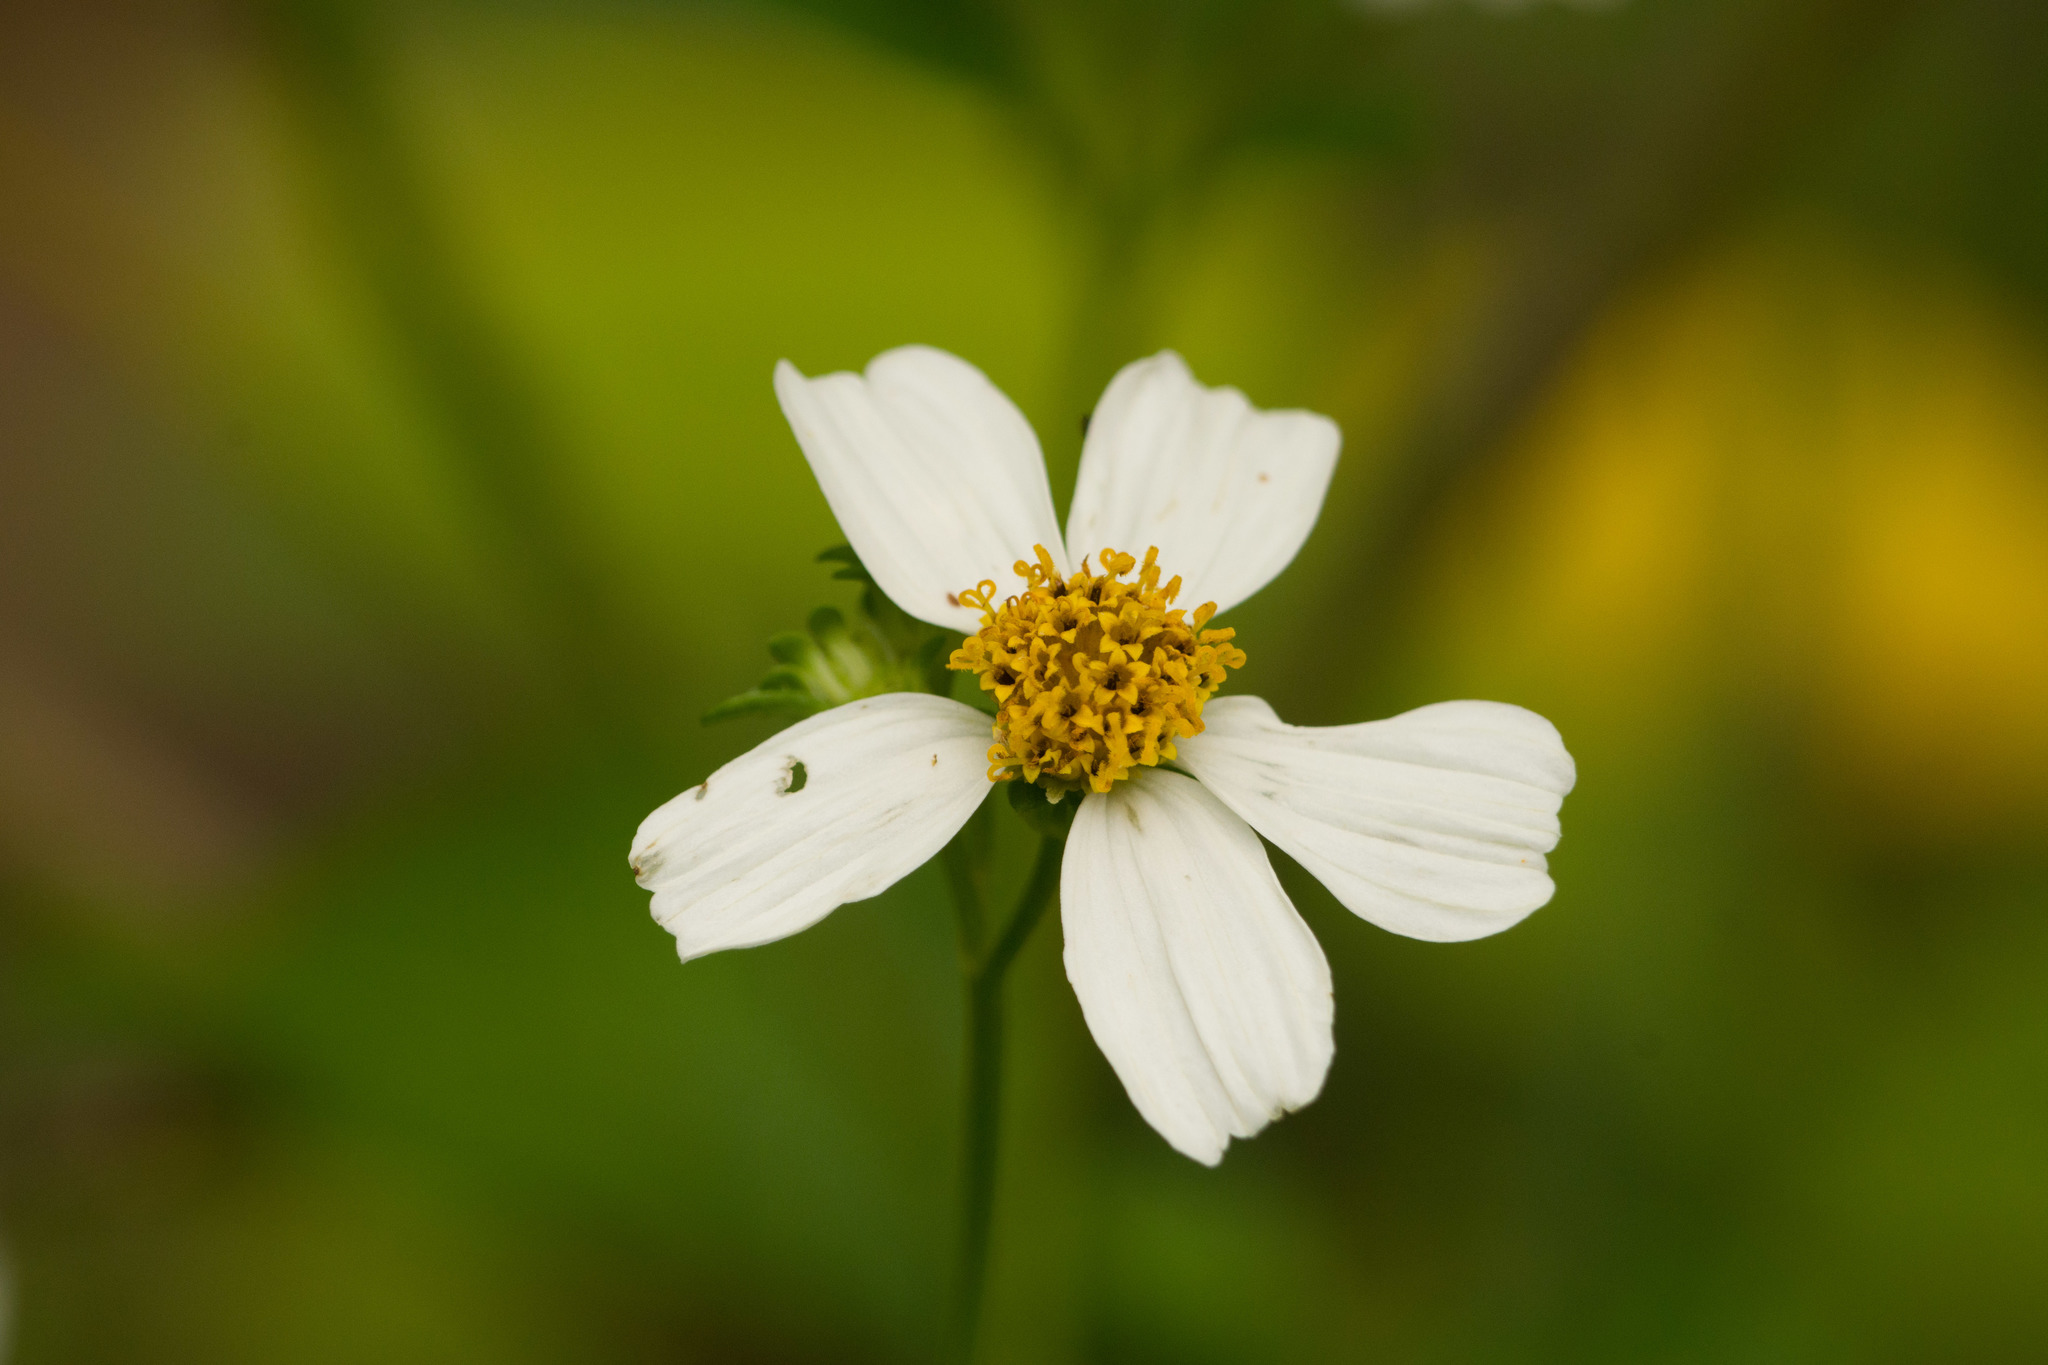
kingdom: Plantae
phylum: Tracheophyta
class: Magnoliopsida
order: Asterales
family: Asteraceae
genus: Bidens
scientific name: Bidens alba
